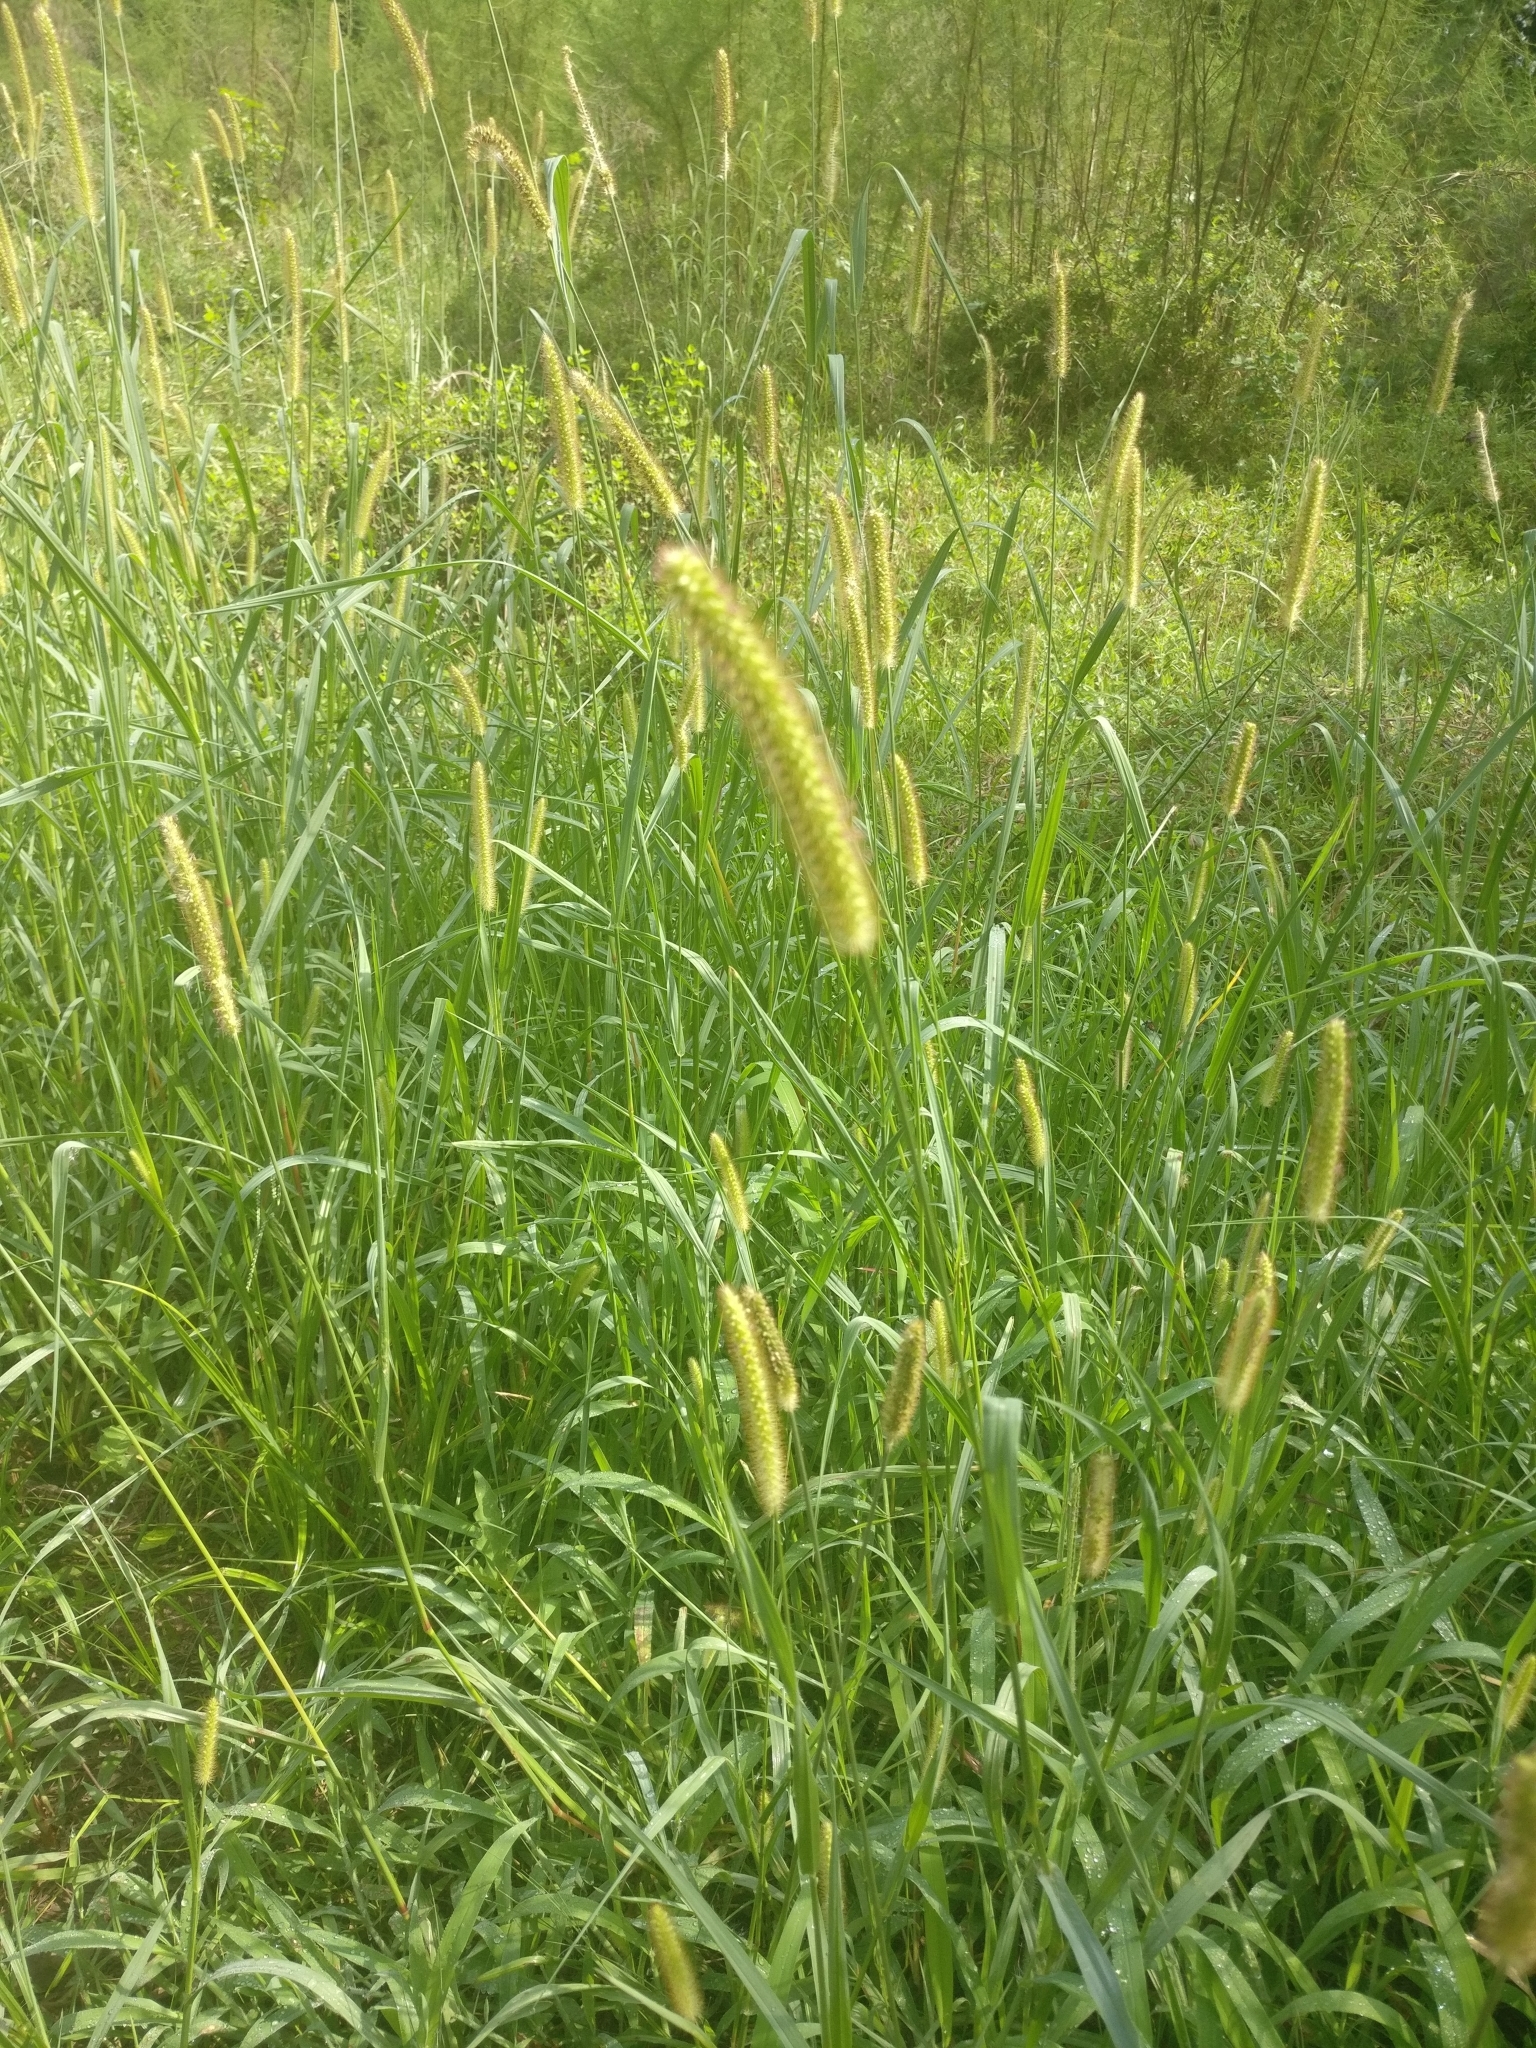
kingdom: Plantae
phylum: Tracheophyta
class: Liliopsida
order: Poales
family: Poaceae
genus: Setaria
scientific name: Setaria pumila
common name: Yellow bristle-grass
